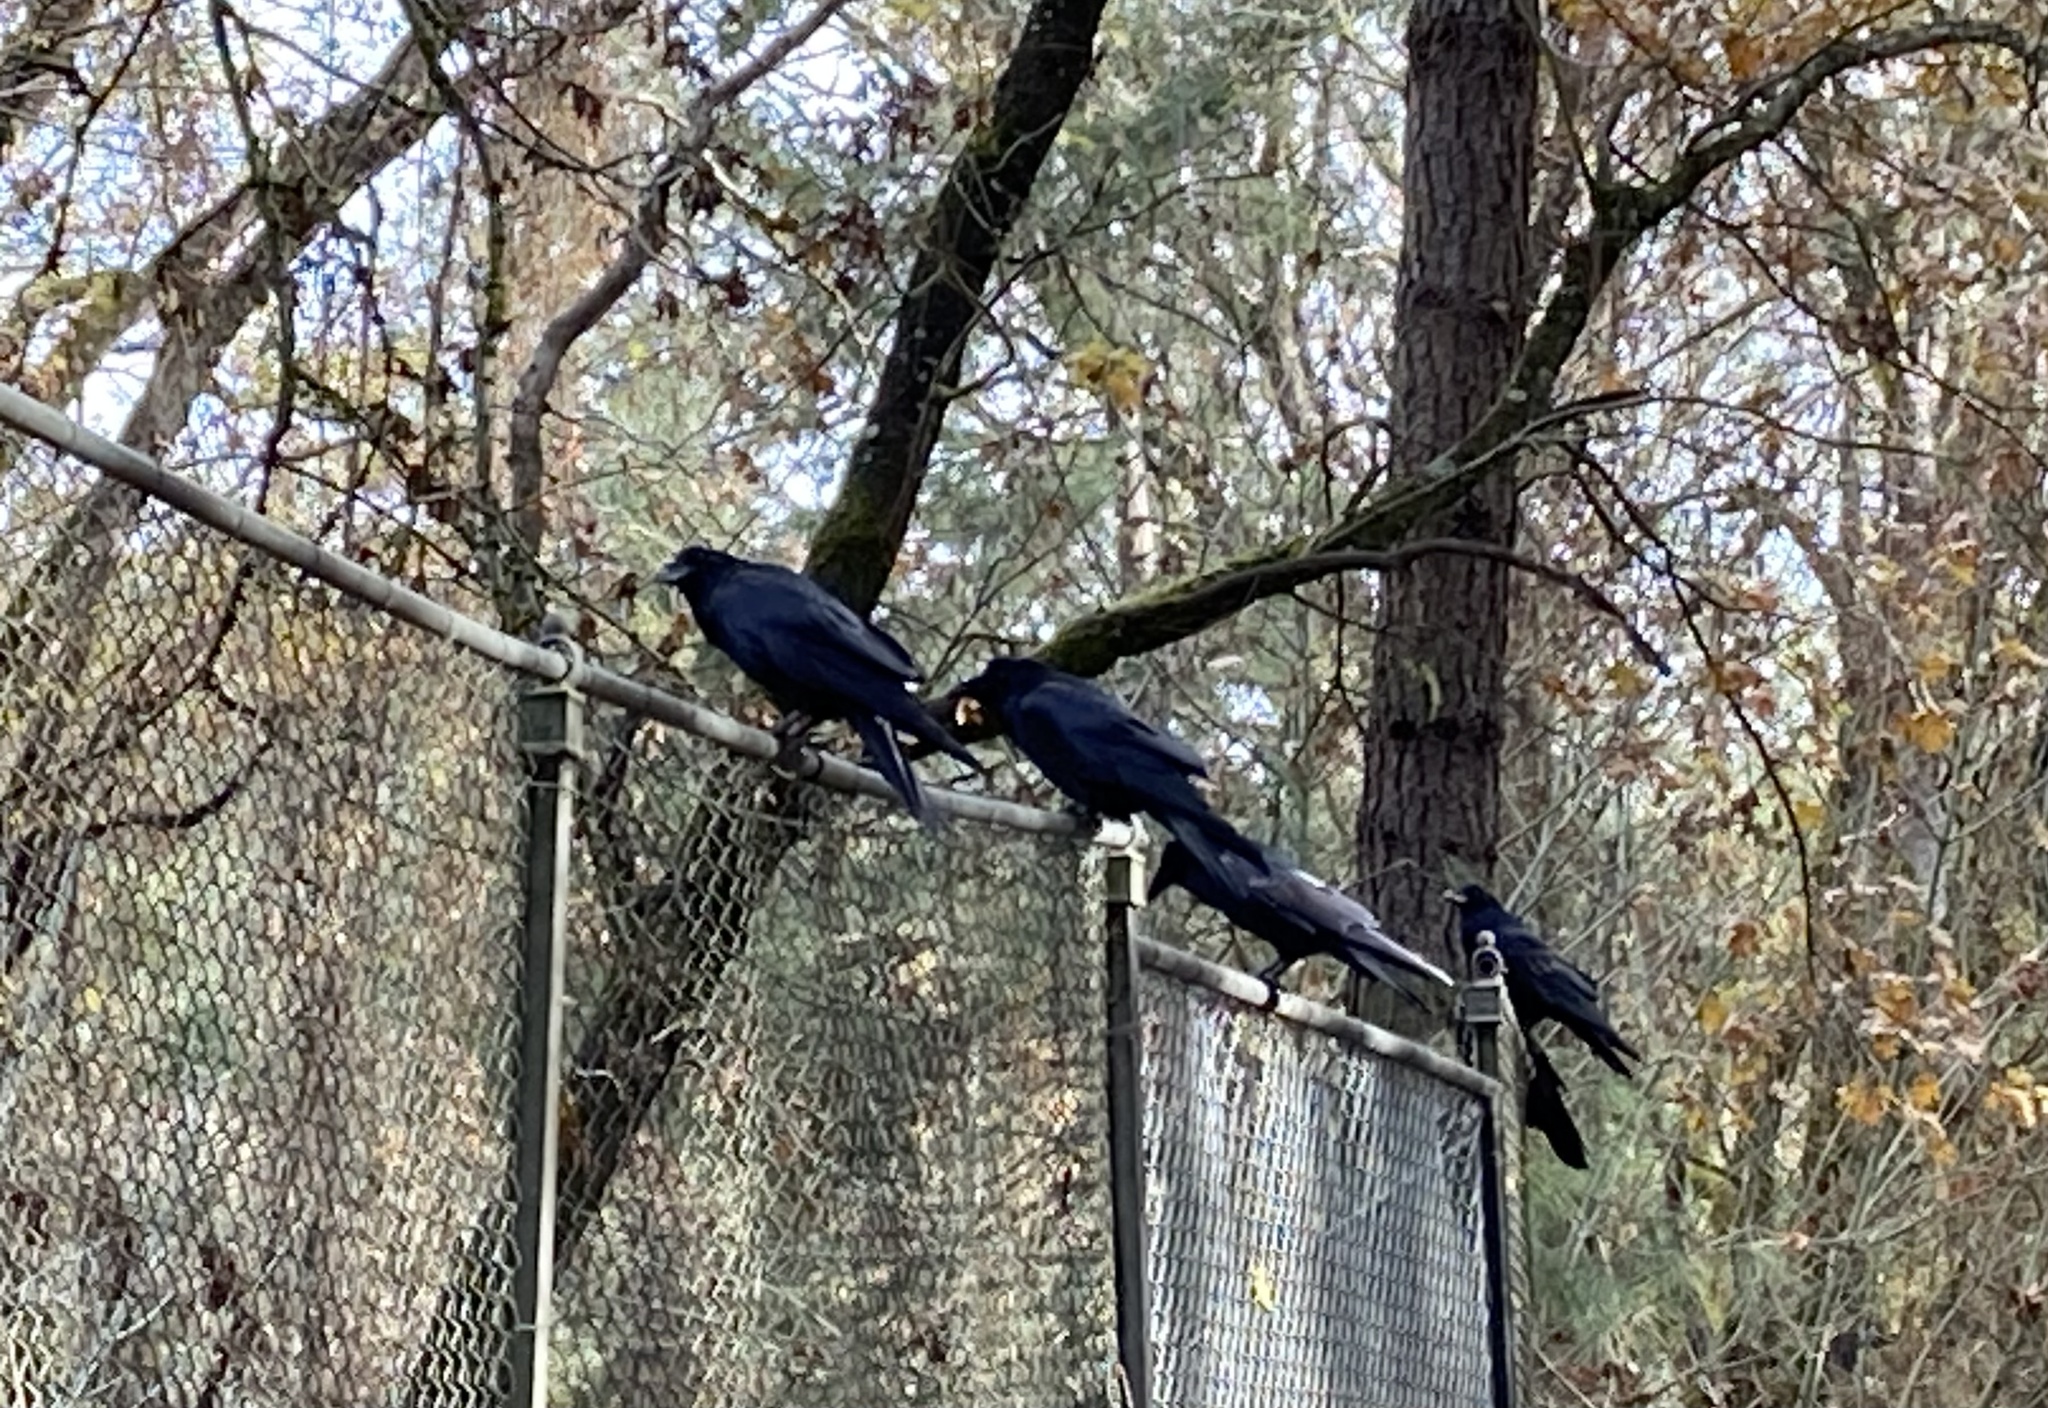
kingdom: Animalia
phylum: Chordata
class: Aves
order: Passeriformes
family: Corvidae
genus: Corvus
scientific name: Corvus corax
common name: Common raven
